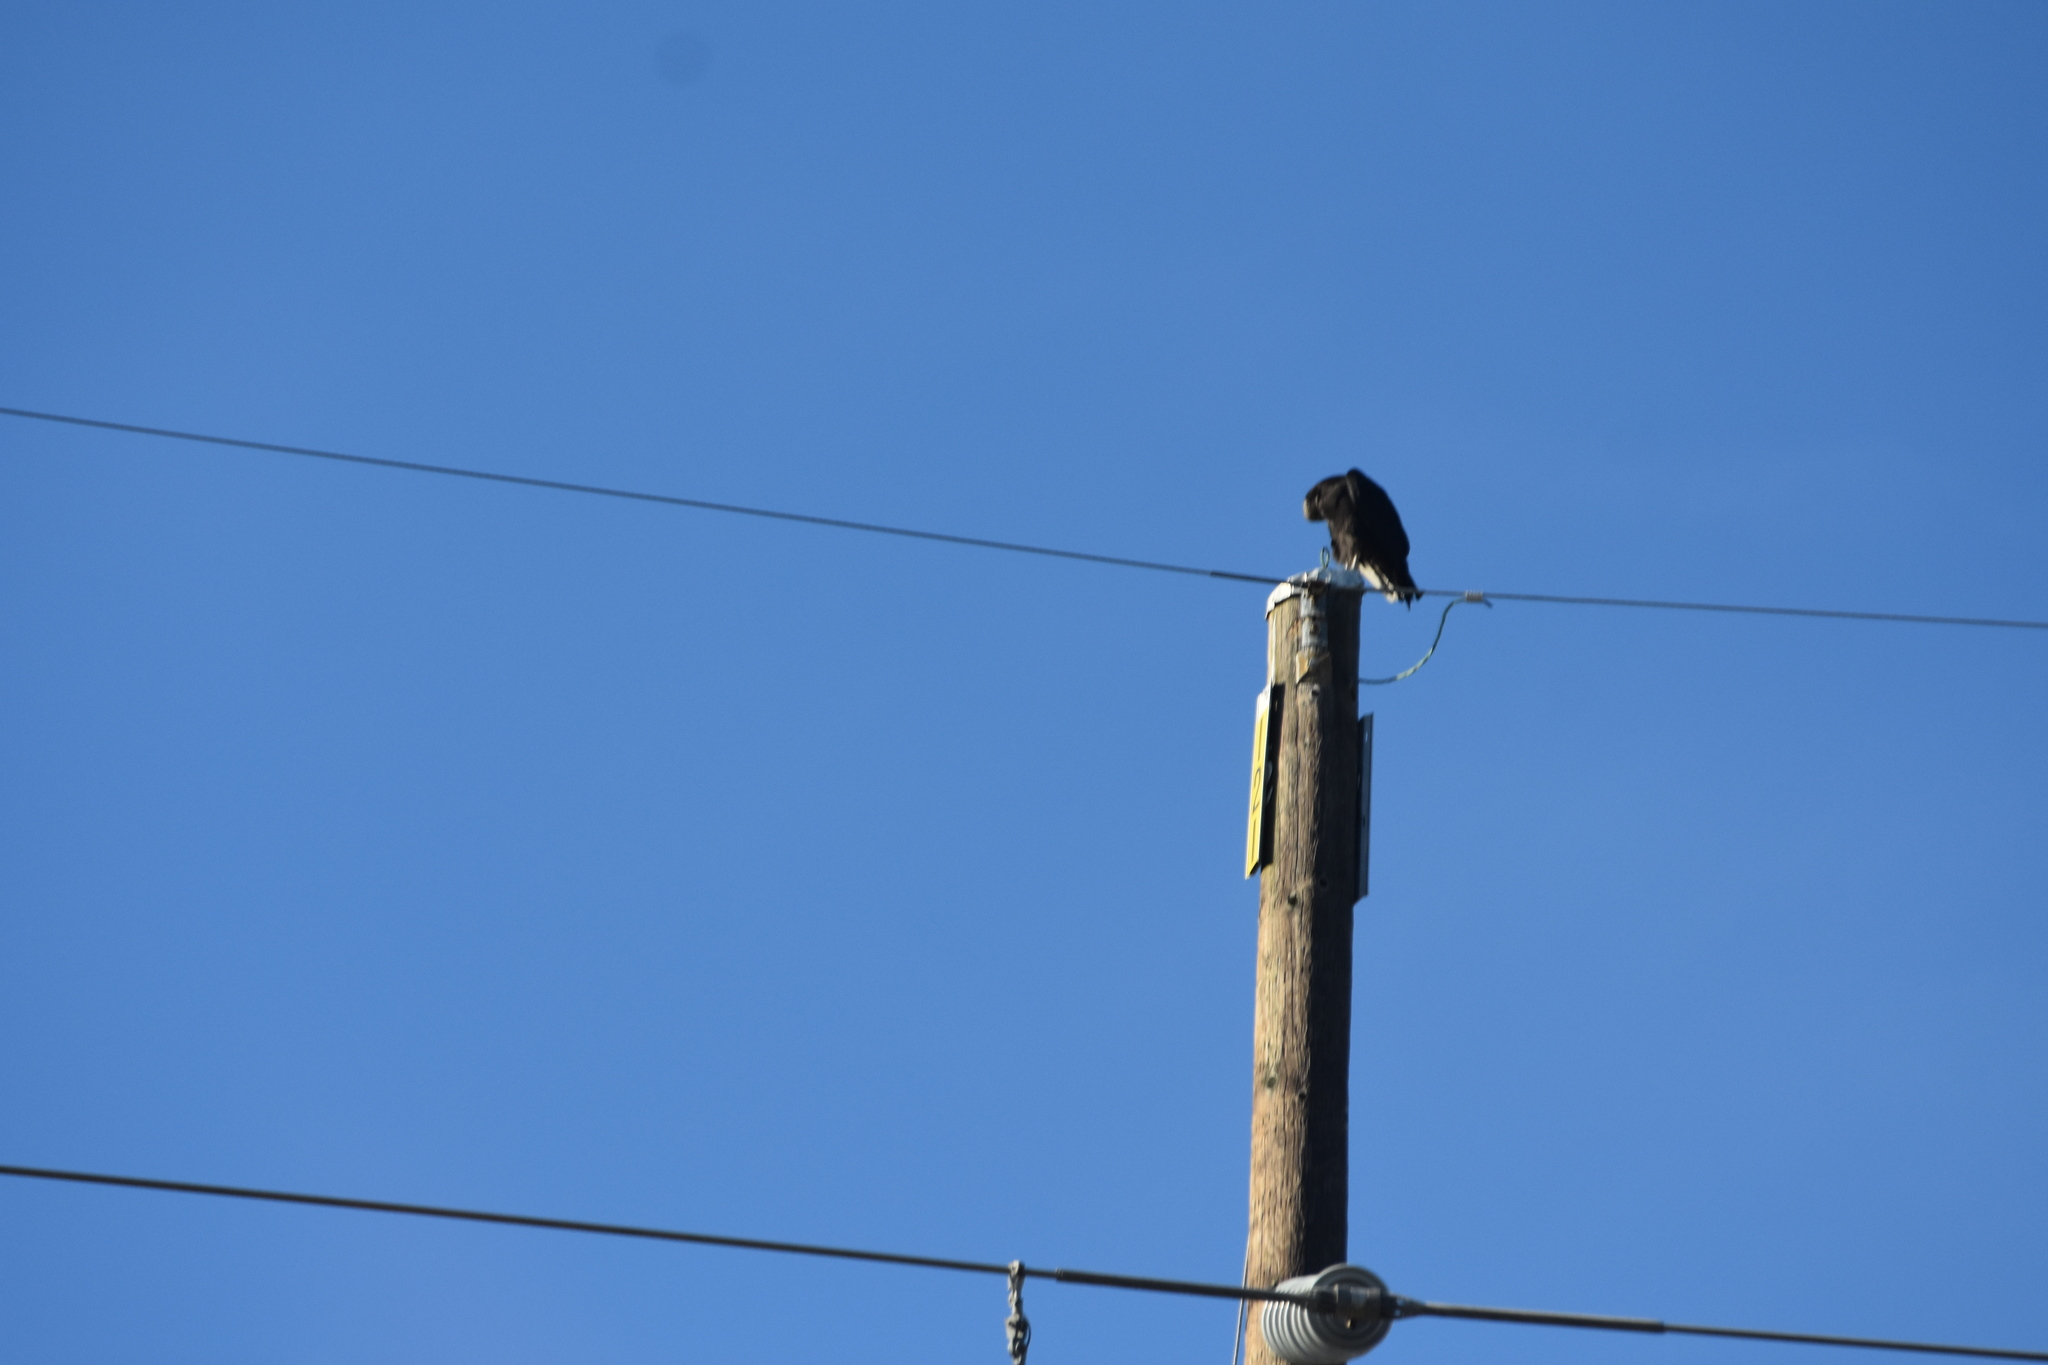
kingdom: Animalia
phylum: Chordata
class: Aves
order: Accipitriformes
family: Cathartidae
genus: Coragyps
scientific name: Coragyps atratus
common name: Black vulture
